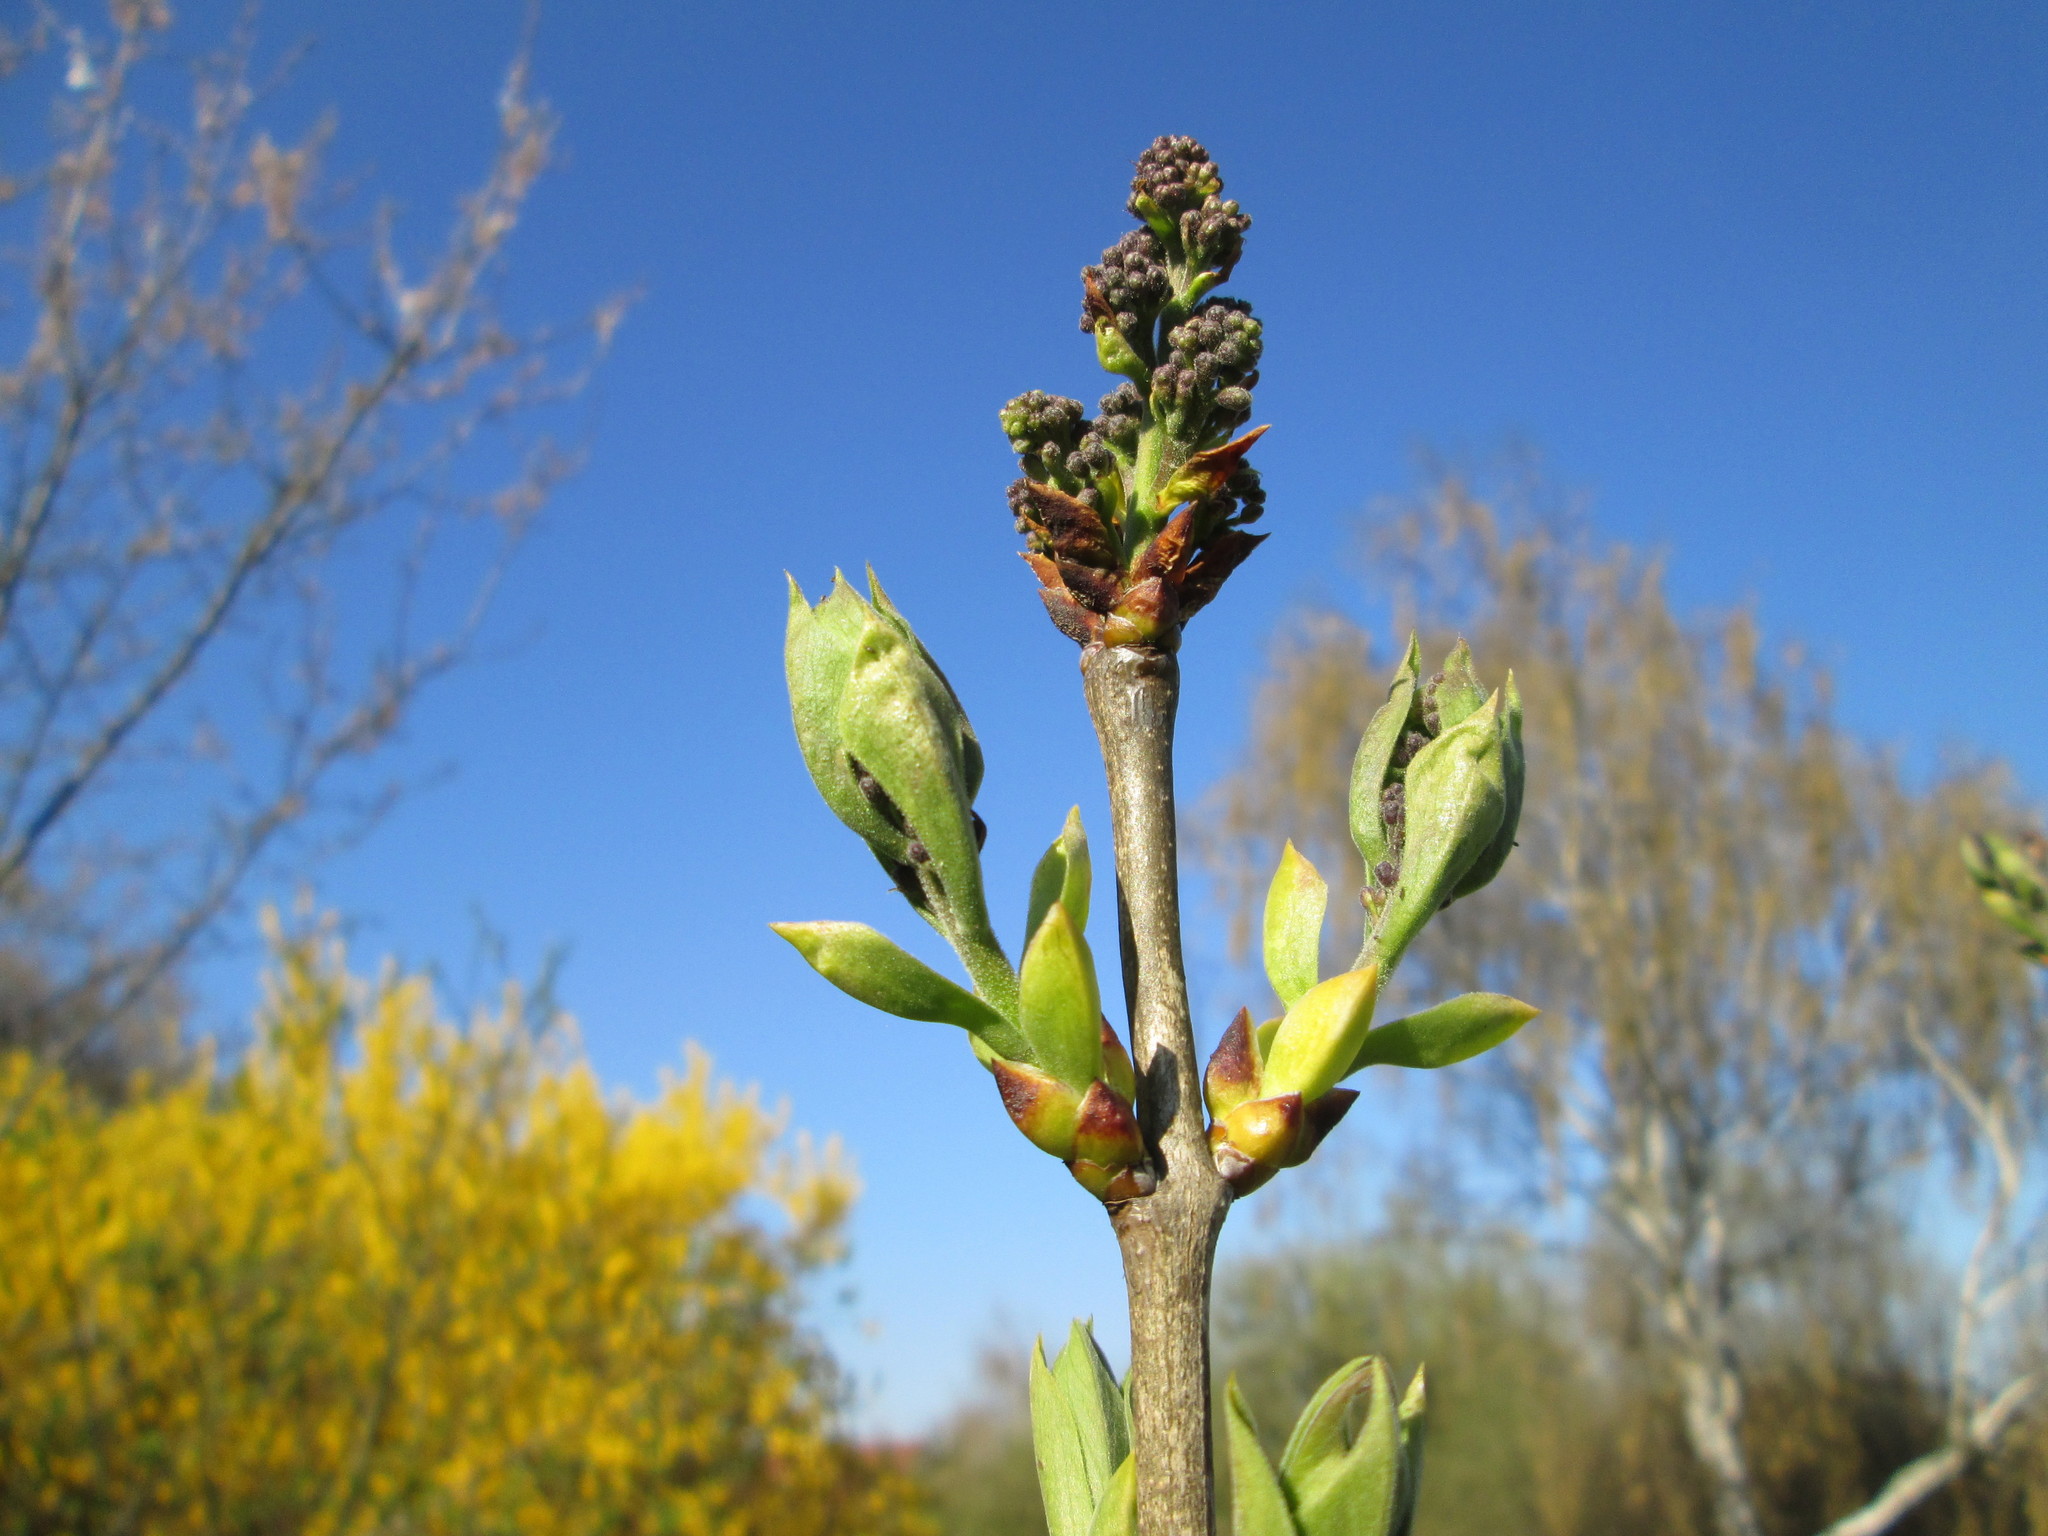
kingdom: Plantae
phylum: Tracheophyta
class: Magnoliopsida
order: Lamiales
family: Oleaceae
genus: Syringa
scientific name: Syringa vulgaris
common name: Common lilac
